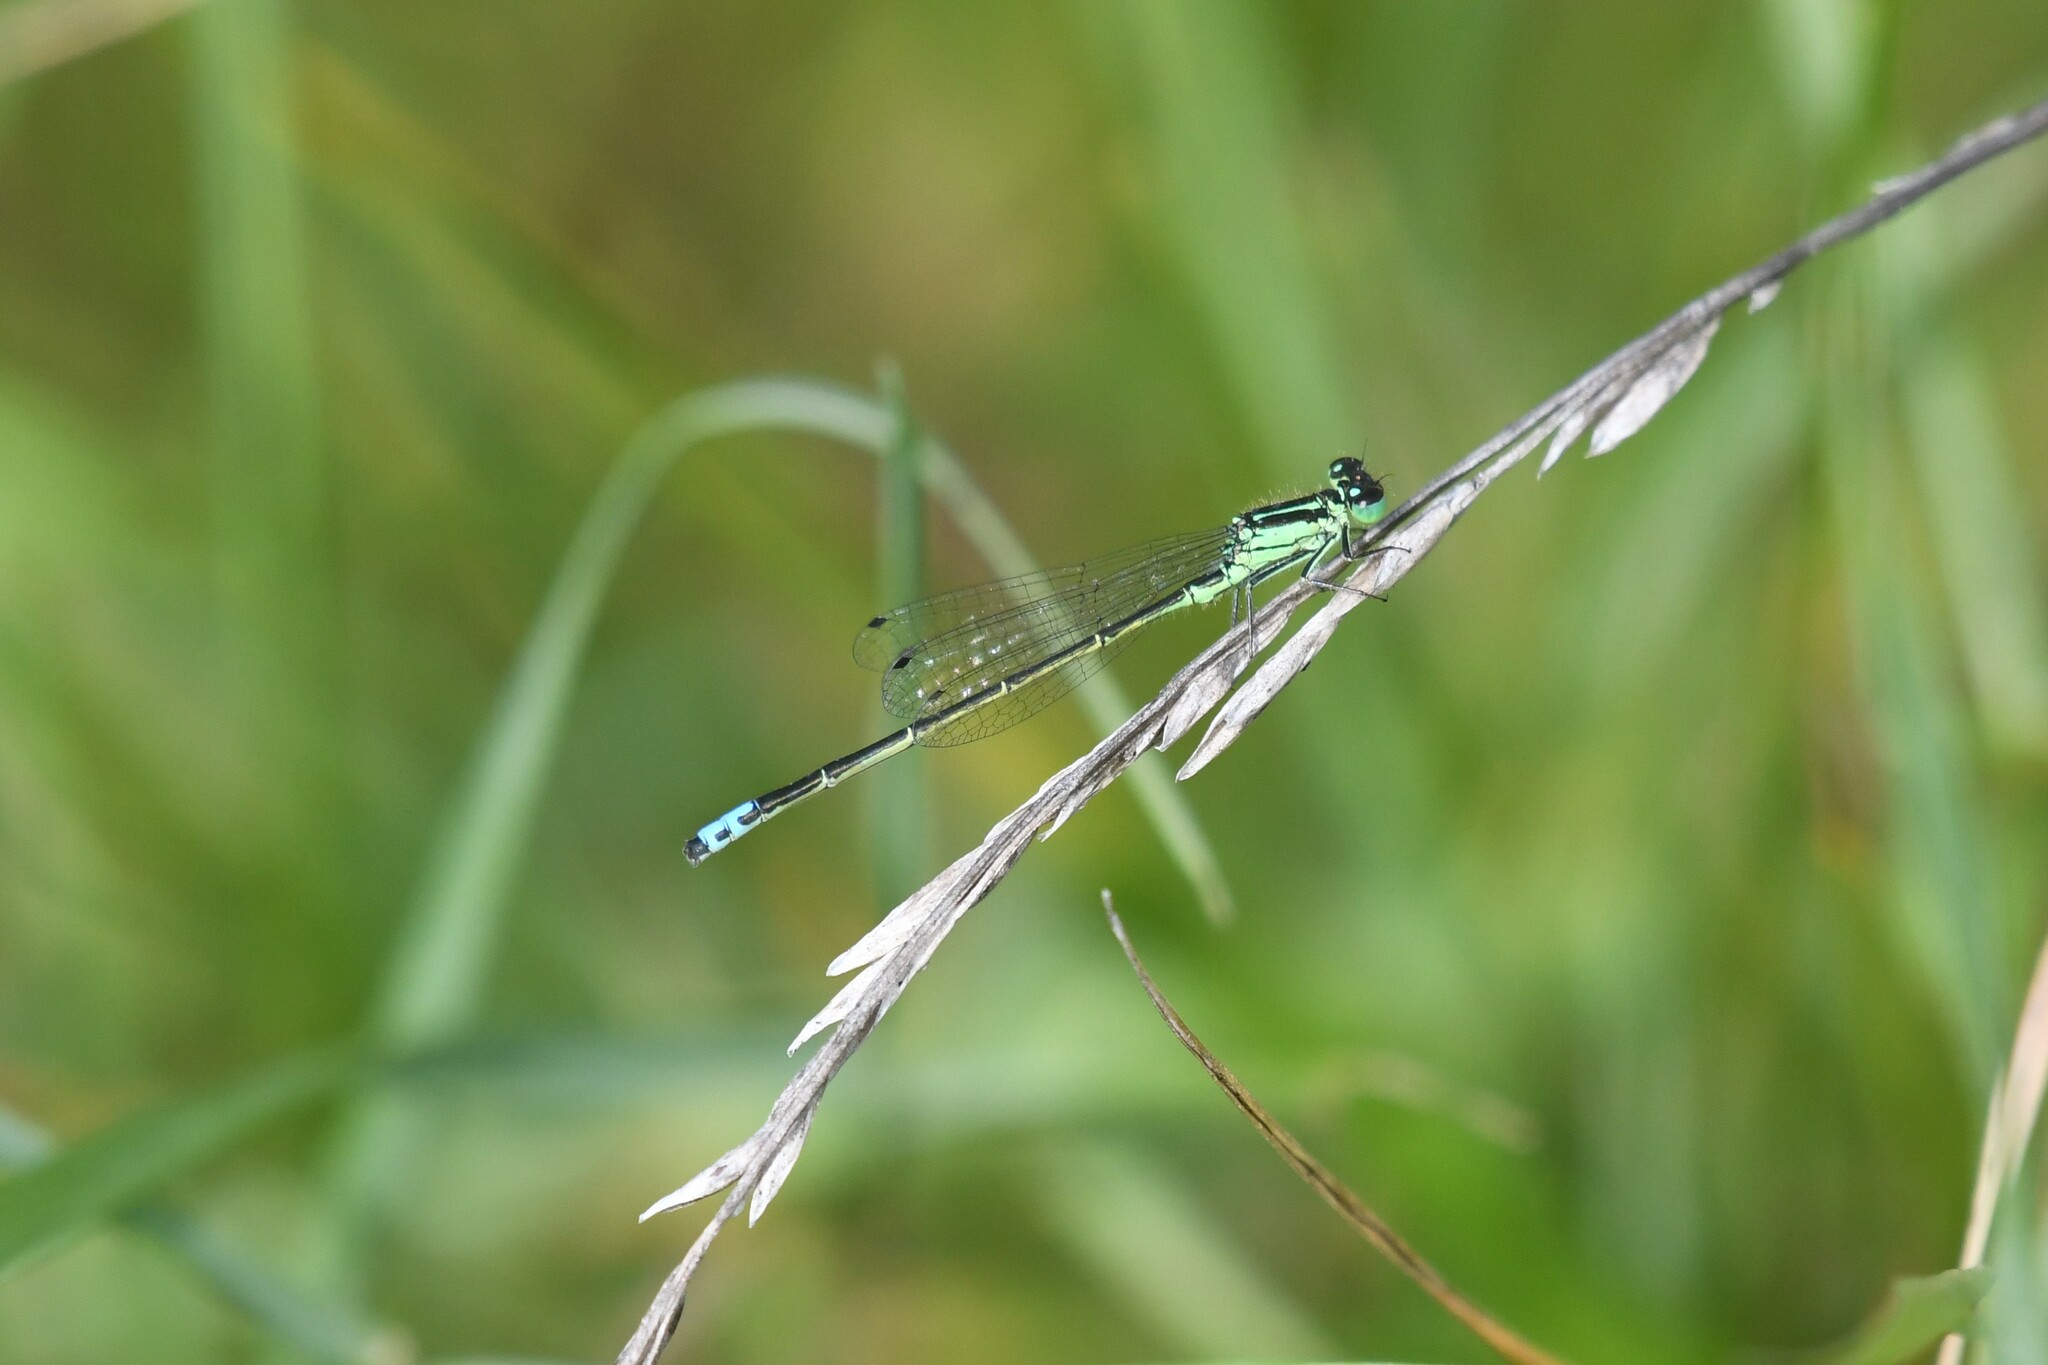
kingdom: Animalia
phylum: Arthropoda
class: Insecta
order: Odonata
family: Coenagrionidae
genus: Ischnura
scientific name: Ischnura verticalis
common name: Eastern forktail
